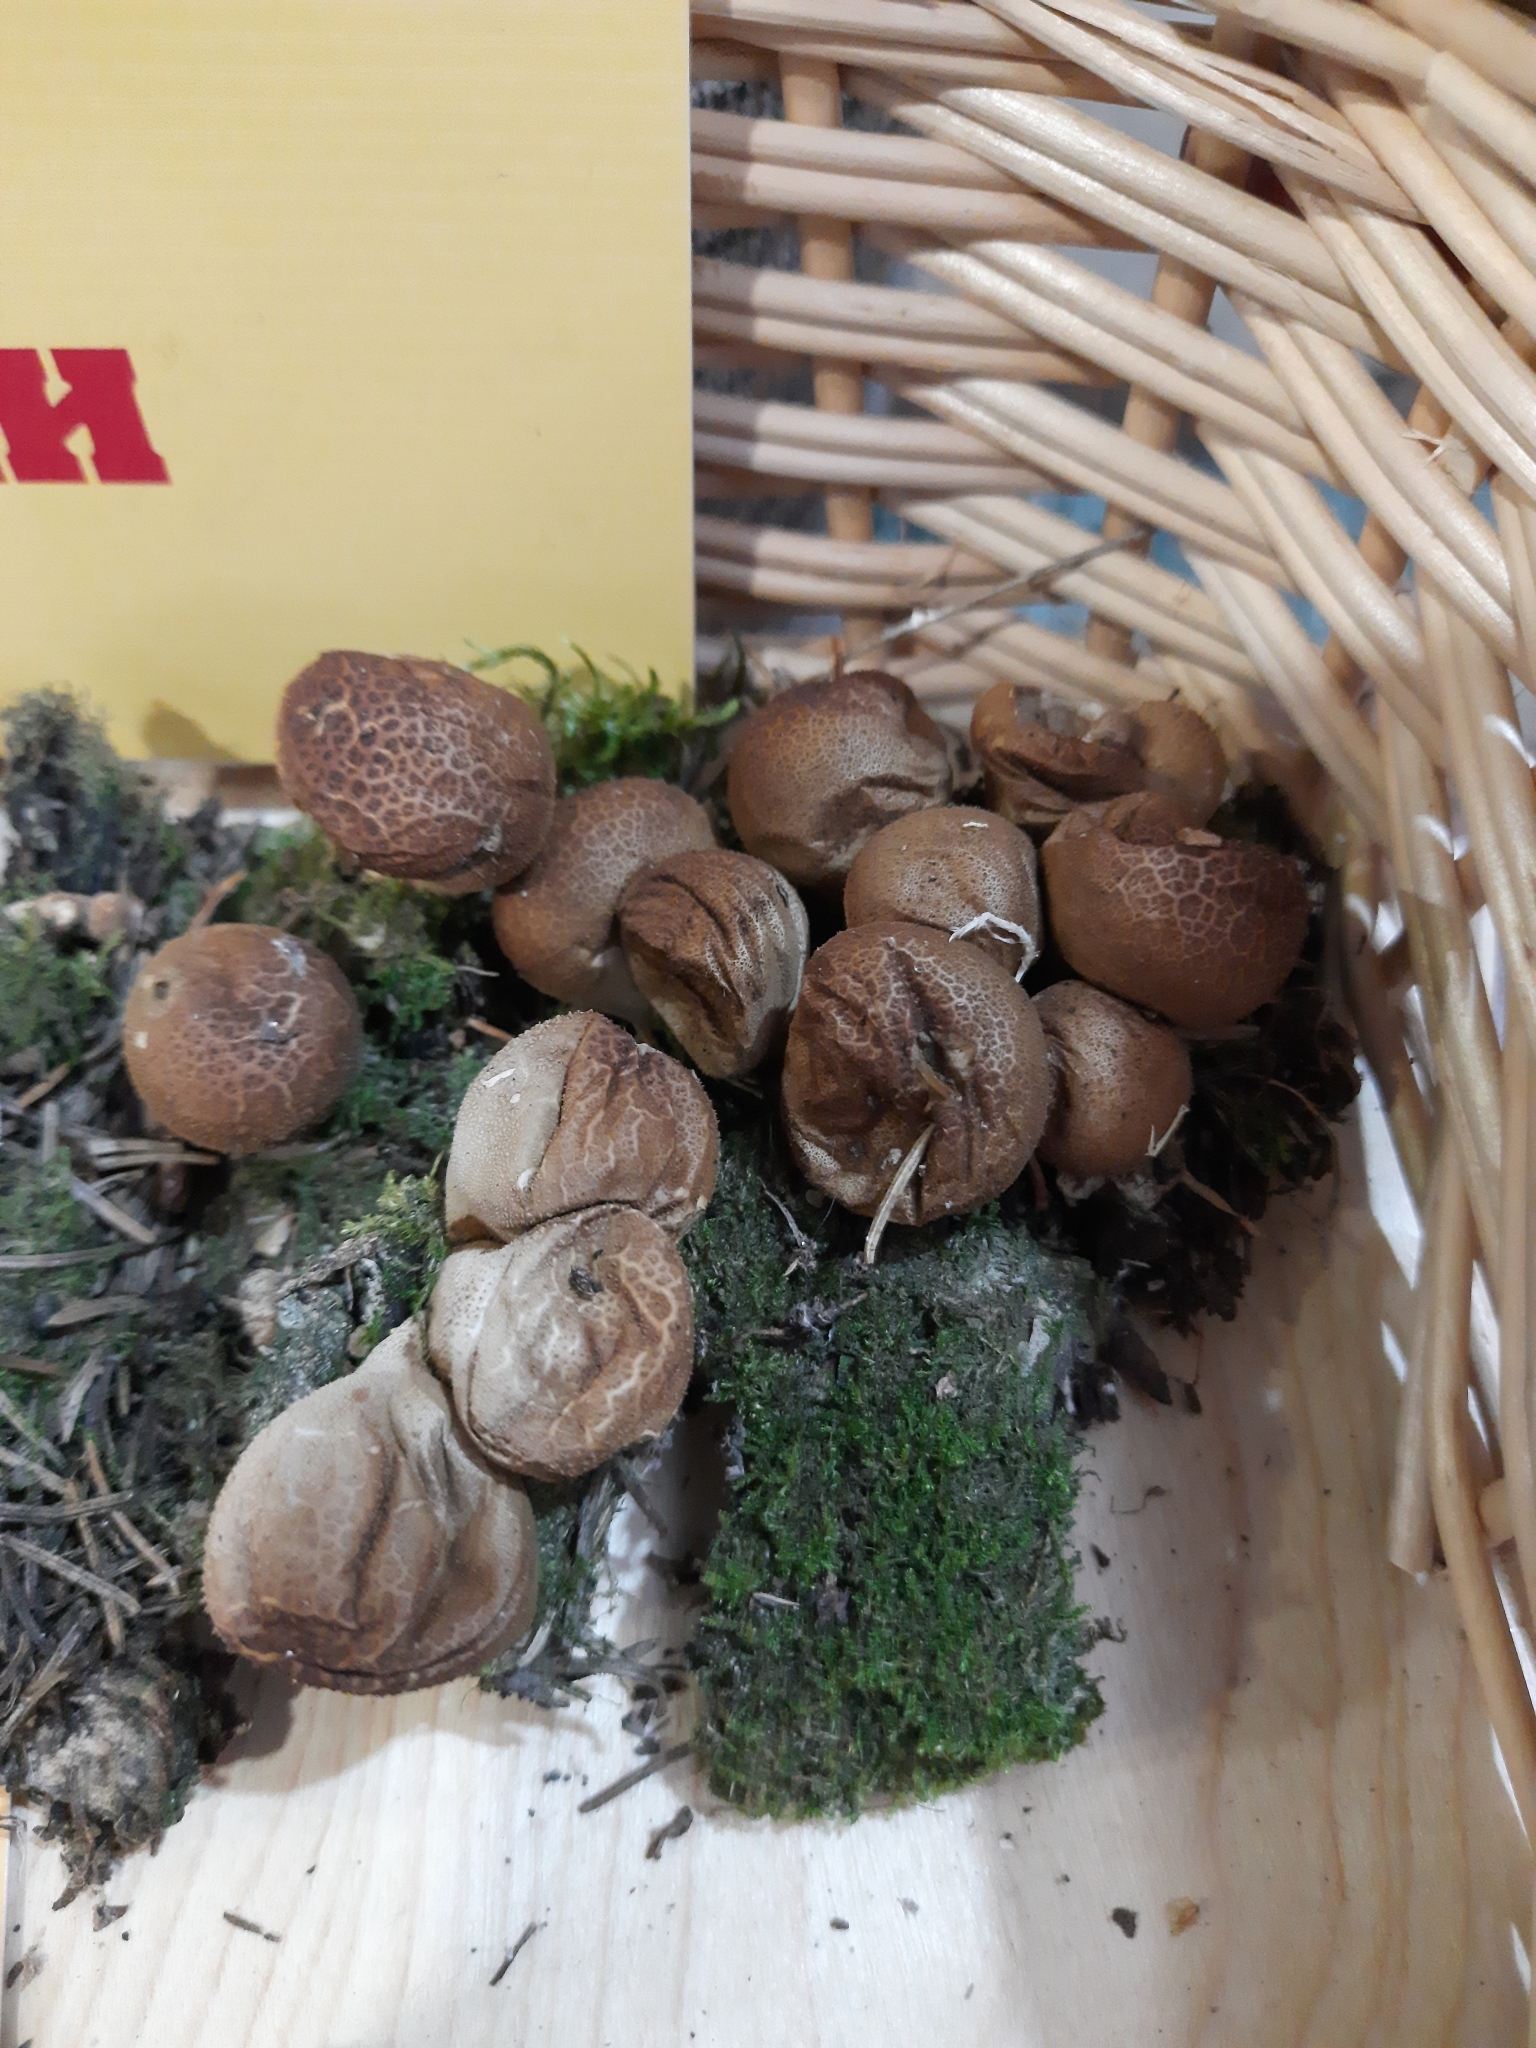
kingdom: Fungi
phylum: Basidiomycota
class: Agaricomycetes
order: Agaricales
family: Lycoperdaceae
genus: Apioperdon
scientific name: Apioperdon pyriforme
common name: Pear-shaped puffball
